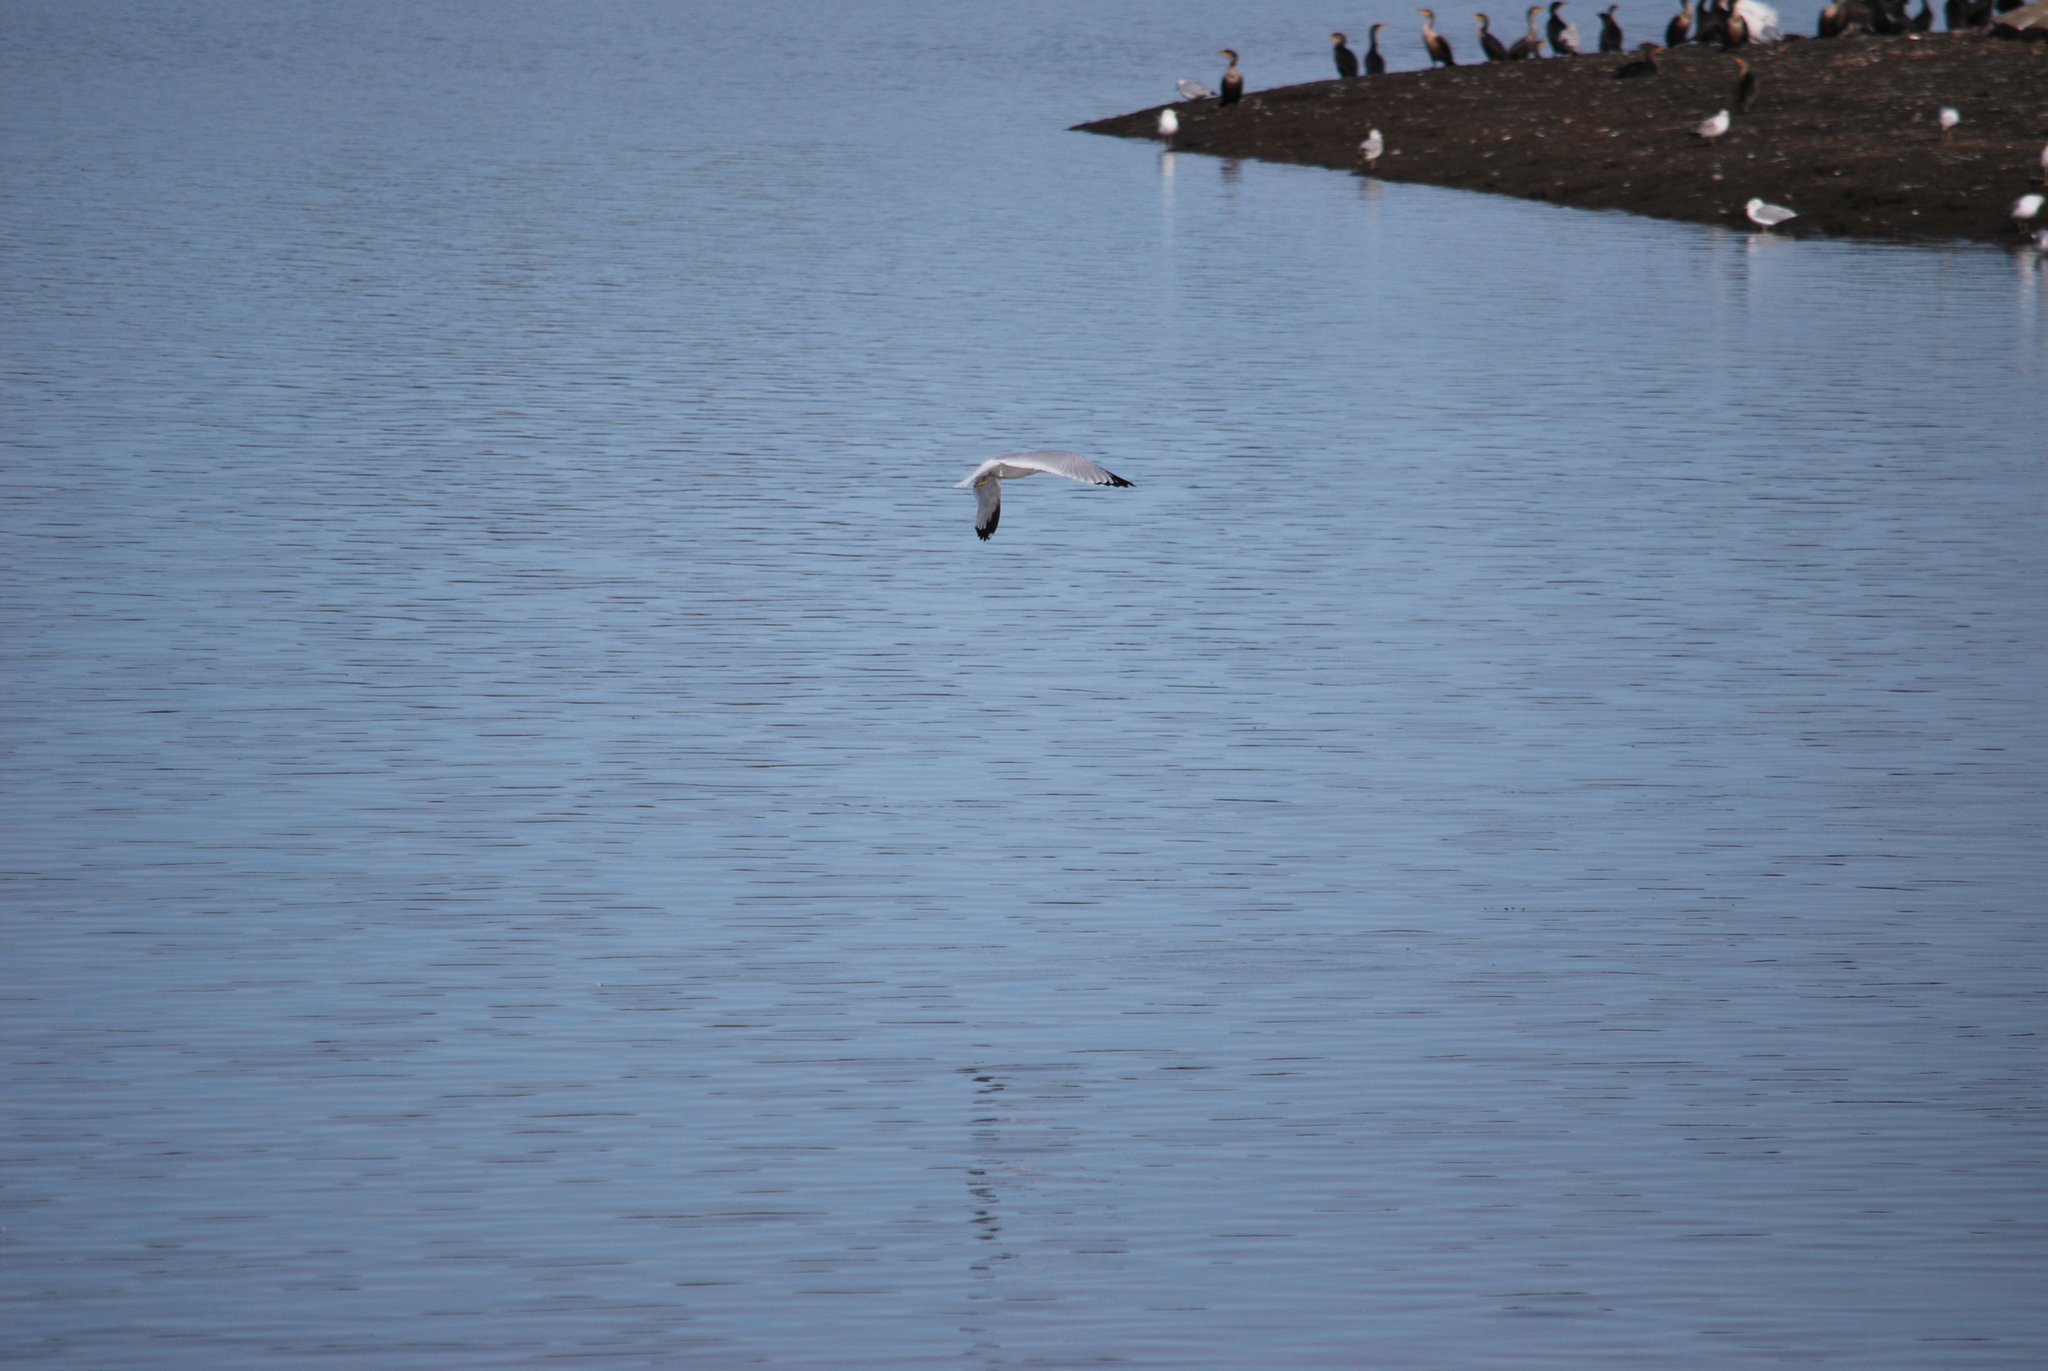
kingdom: Animalia
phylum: Chordata
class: Aves
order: Charadriiformes
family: Laridae
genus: Larus
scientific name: Larus delawarensis
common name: Ring-billed gull
